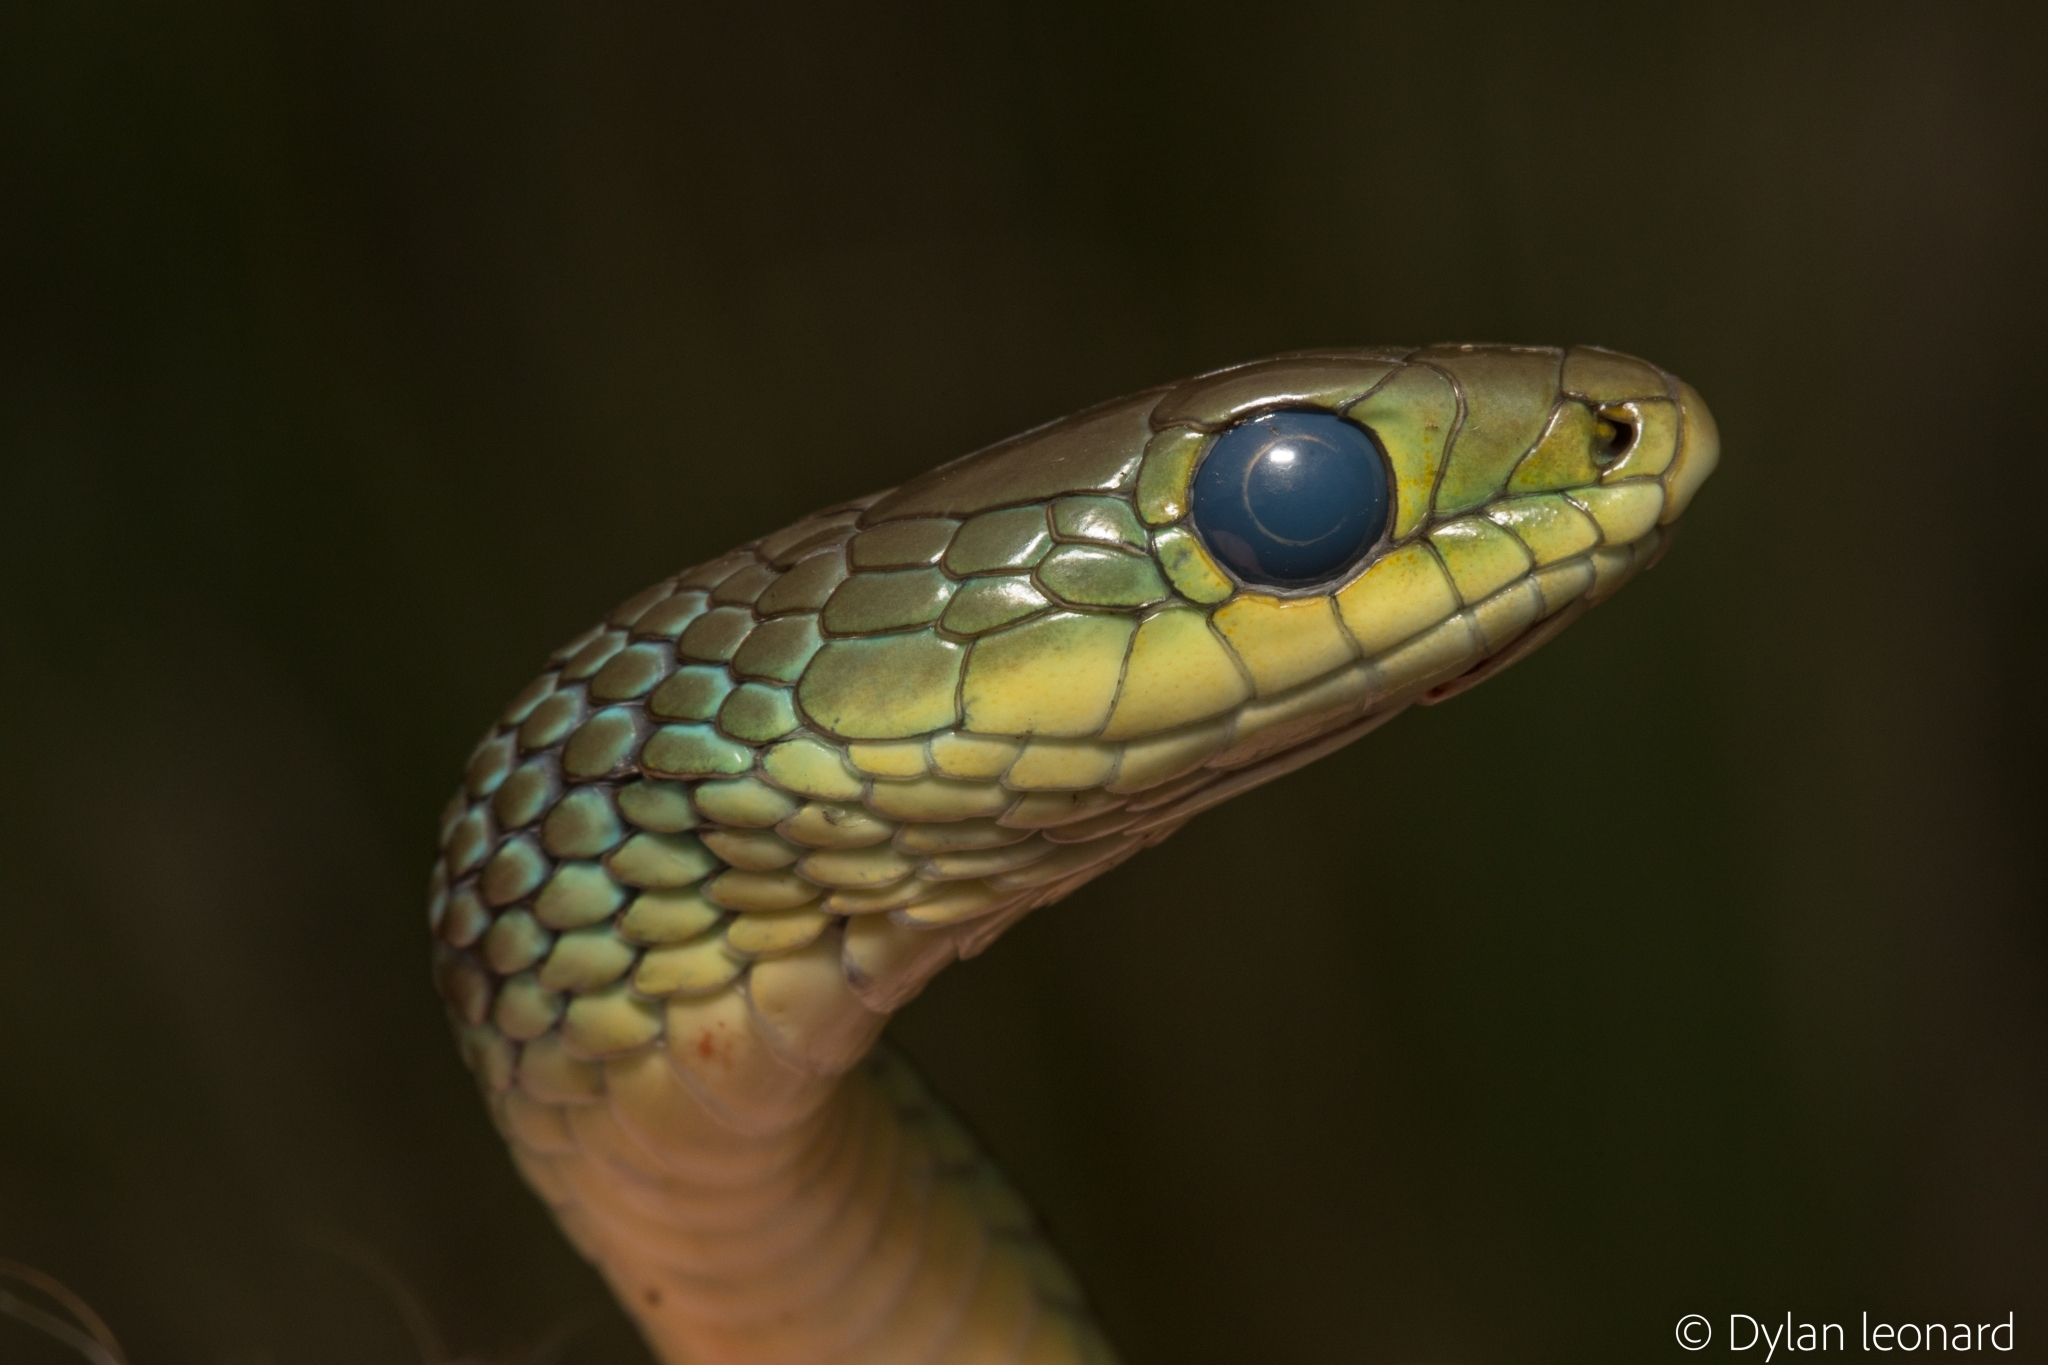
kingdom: Animalia
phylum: Chordata
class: Squamata
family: Colubridae
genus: Philothamnus
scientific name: Philothamnus occidentalis
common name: Western natal green snake
